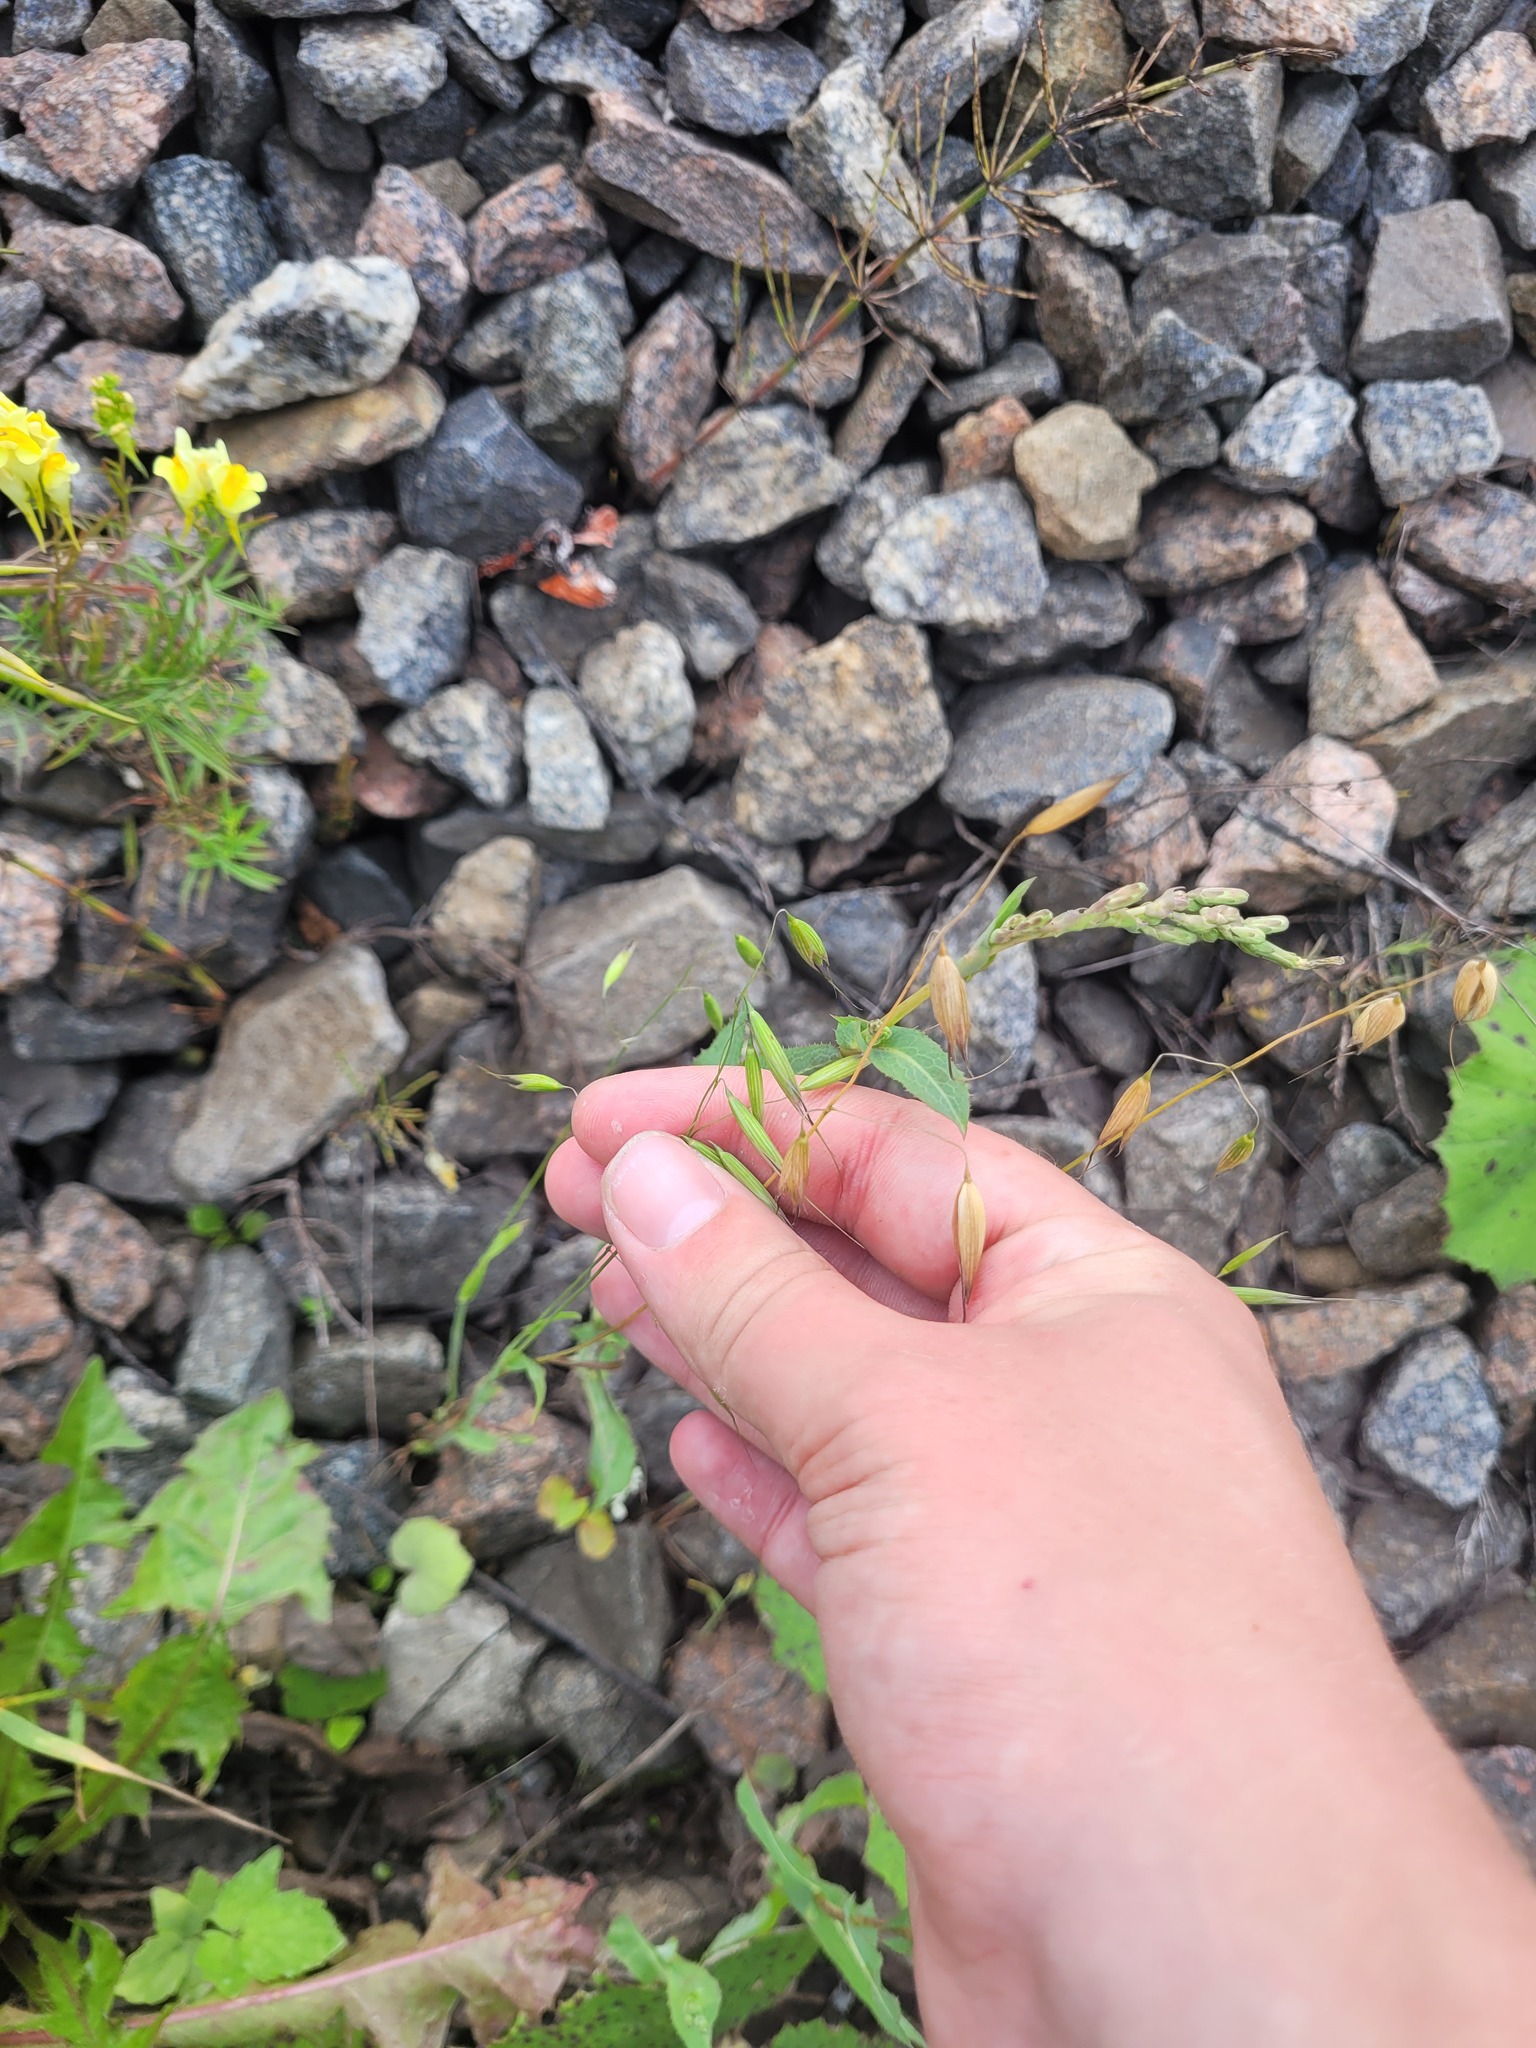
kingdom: Plantae
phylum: Tracheophyta
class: Liliopsida
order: Poales
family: Poaceae
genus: Avena
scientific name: Avena fatua
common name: Wild oat
